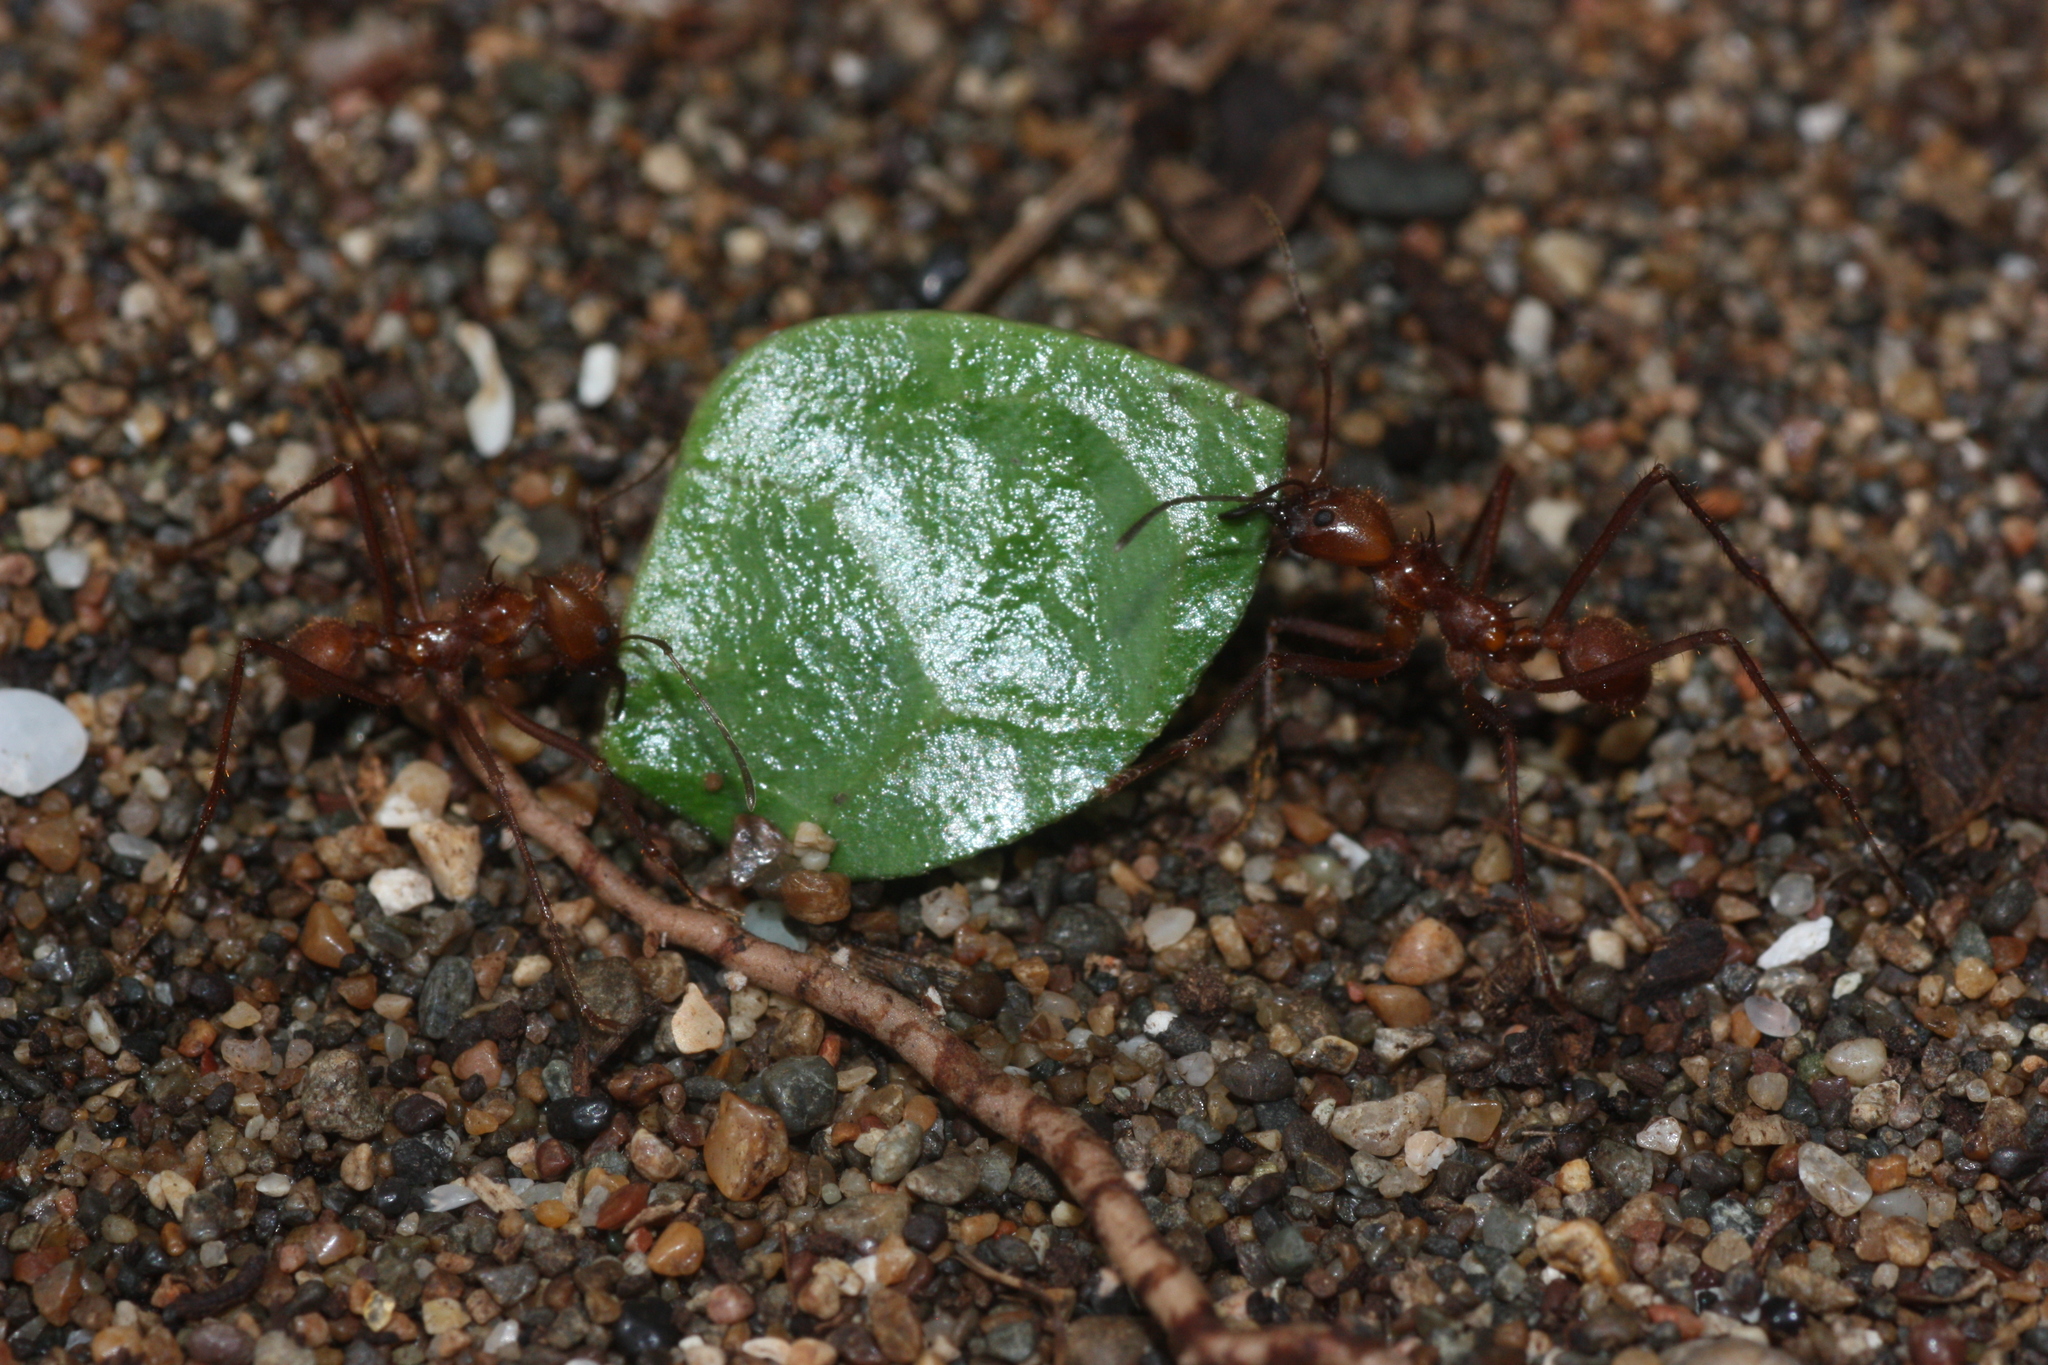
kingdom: Animalia
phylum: Arthropoda
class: Insecta
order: Hymenoptera
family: Formicidae
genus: Atta
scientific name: Atta cephalotes
